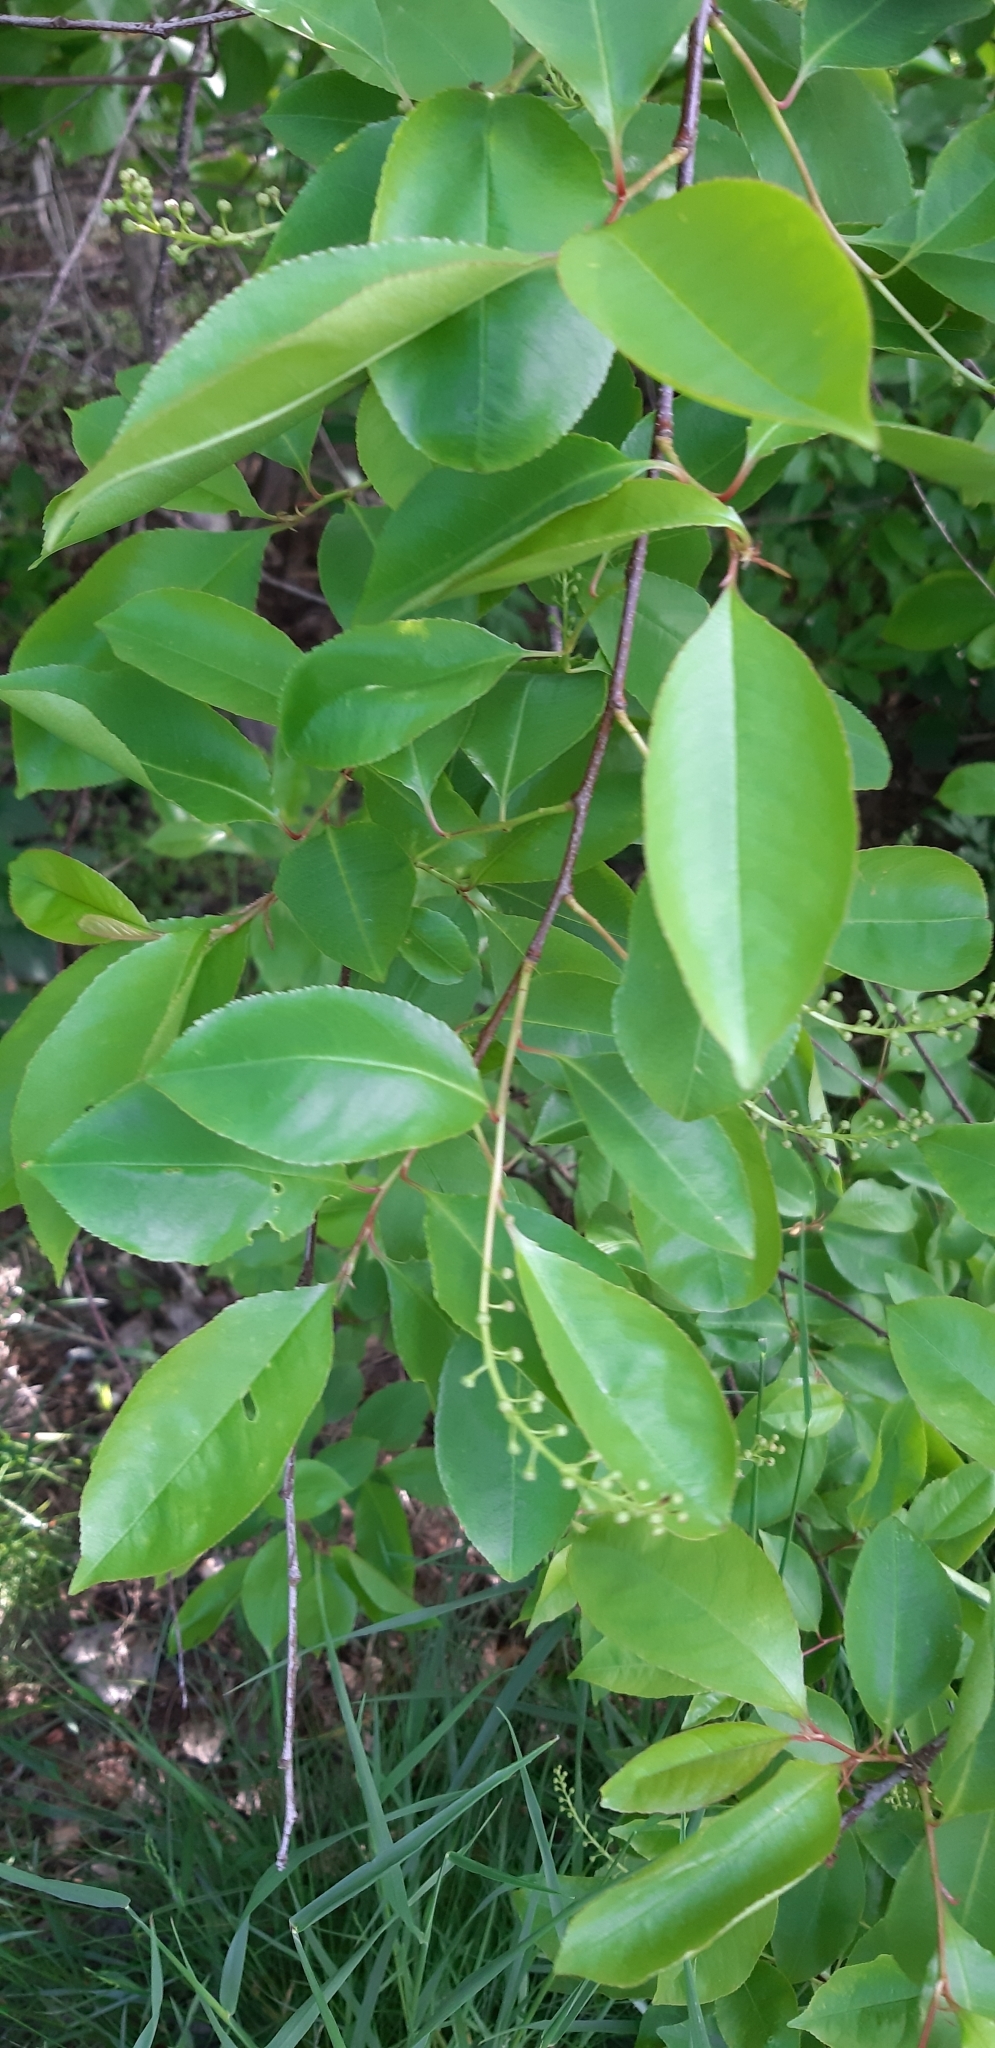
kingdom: Plantae
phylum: Tracheophyta
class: Magnoliopsida
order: Rosales
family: Rosaceae
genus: Prunus
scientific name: Prunus serotina
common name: Black cherry
